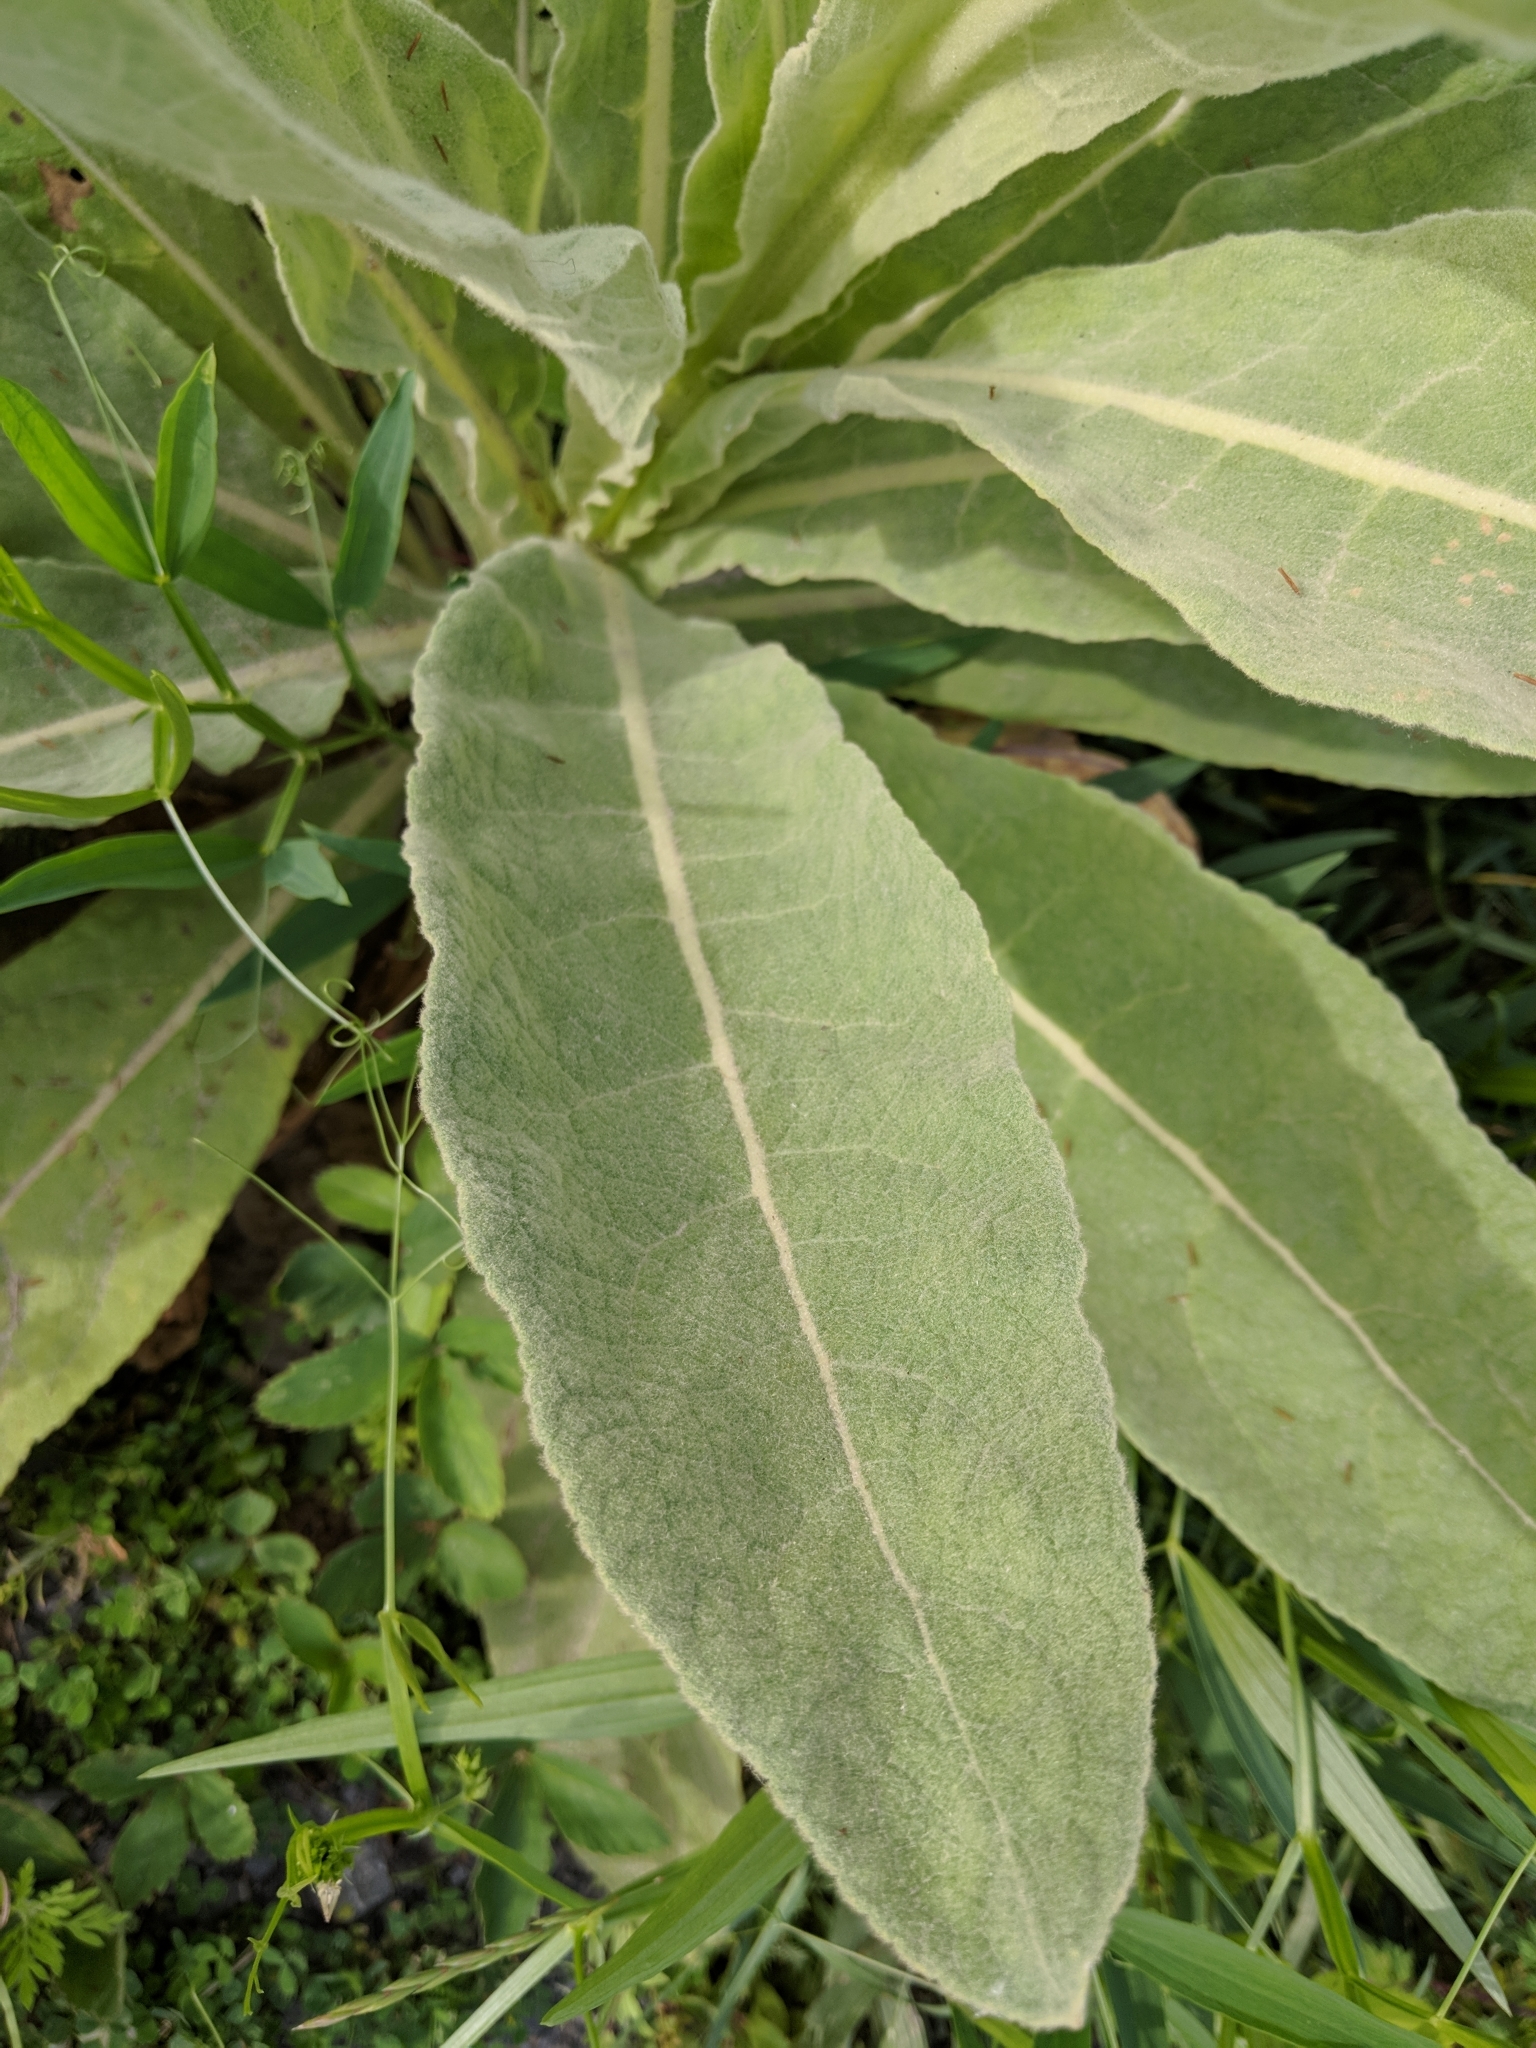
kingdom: Plantae
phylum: Tracheophyta
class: Magnoliopsida
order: Lamiales
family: Scrophulariaceae
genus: Verbascum
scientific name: Verbascum thapsus
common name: Common mullein
